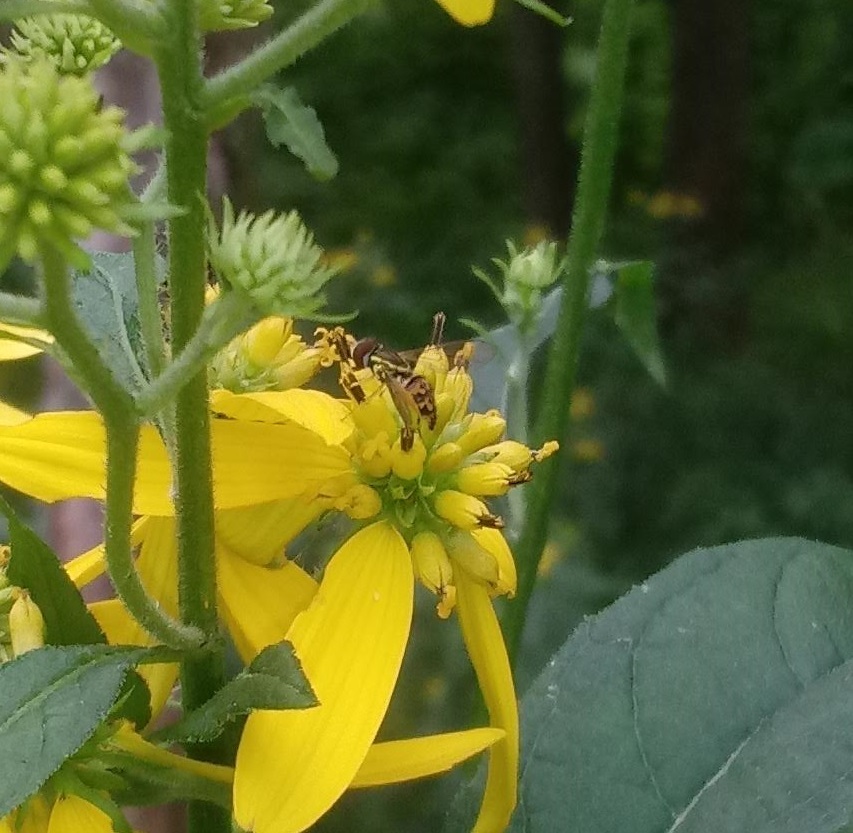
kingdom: Animalia
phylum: Arthropoda
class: Insecta
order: Diptera
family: Syrphidae
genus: Toxomerus
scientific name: Toxomerus geminatus
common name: Eastern calligrapher
